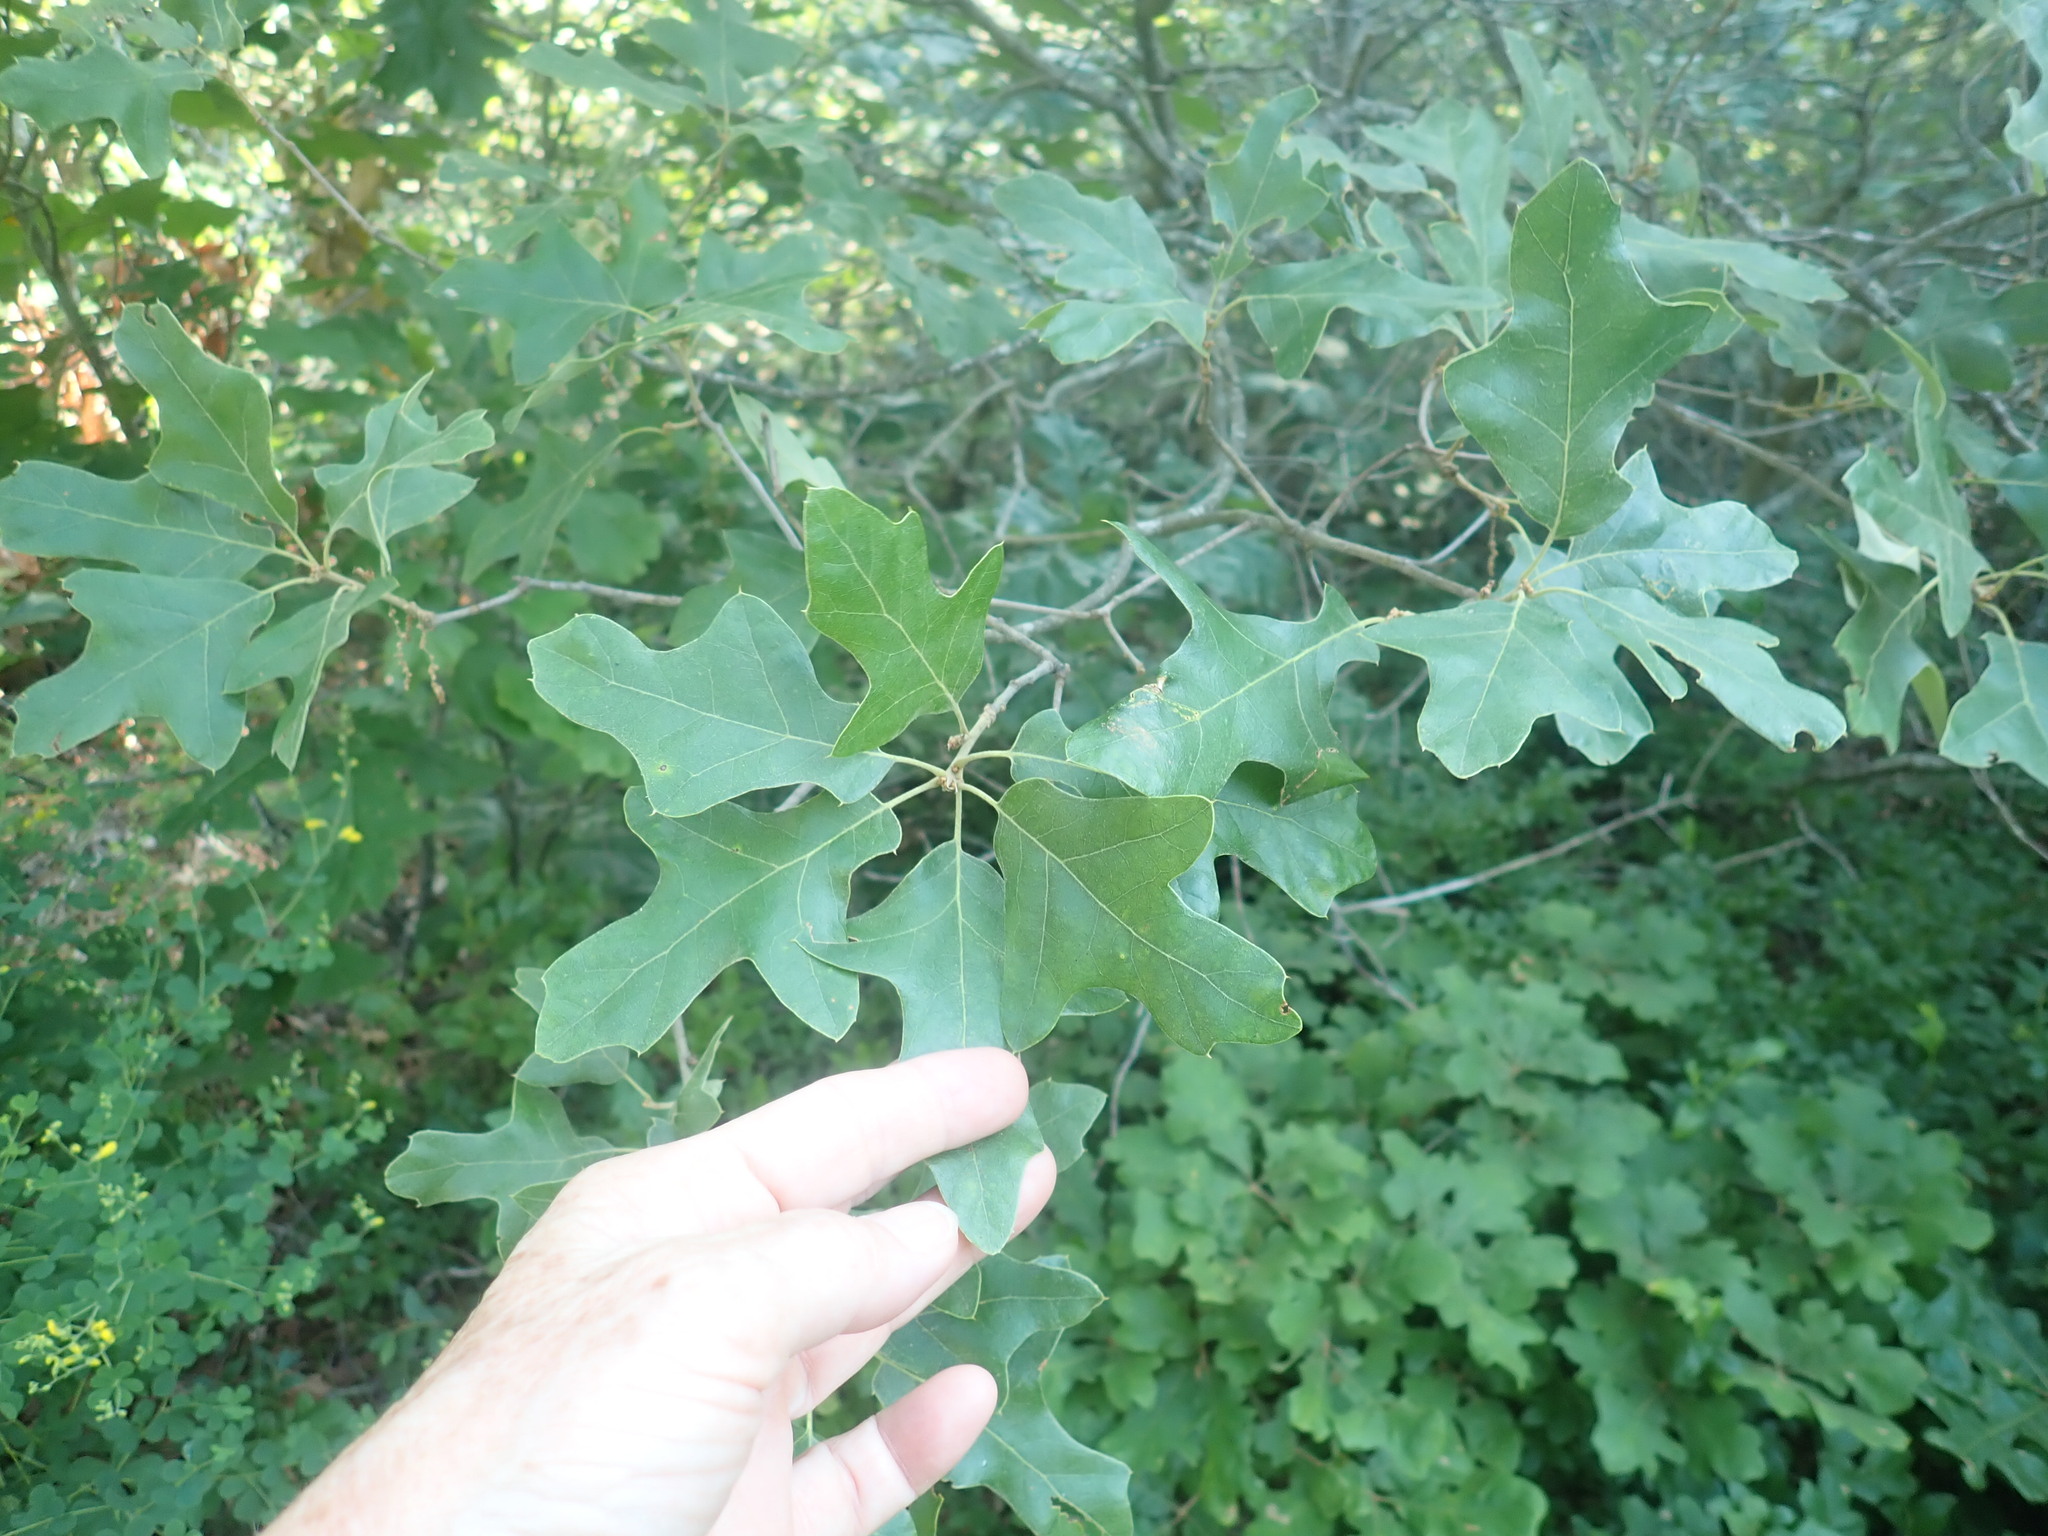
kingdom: Plantae
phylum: Tracheophyta
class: Magnoliopsida
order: Fagales
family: Fagaceae
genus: Quercus
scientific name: Quercus ilicifolia
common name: Bear oak
